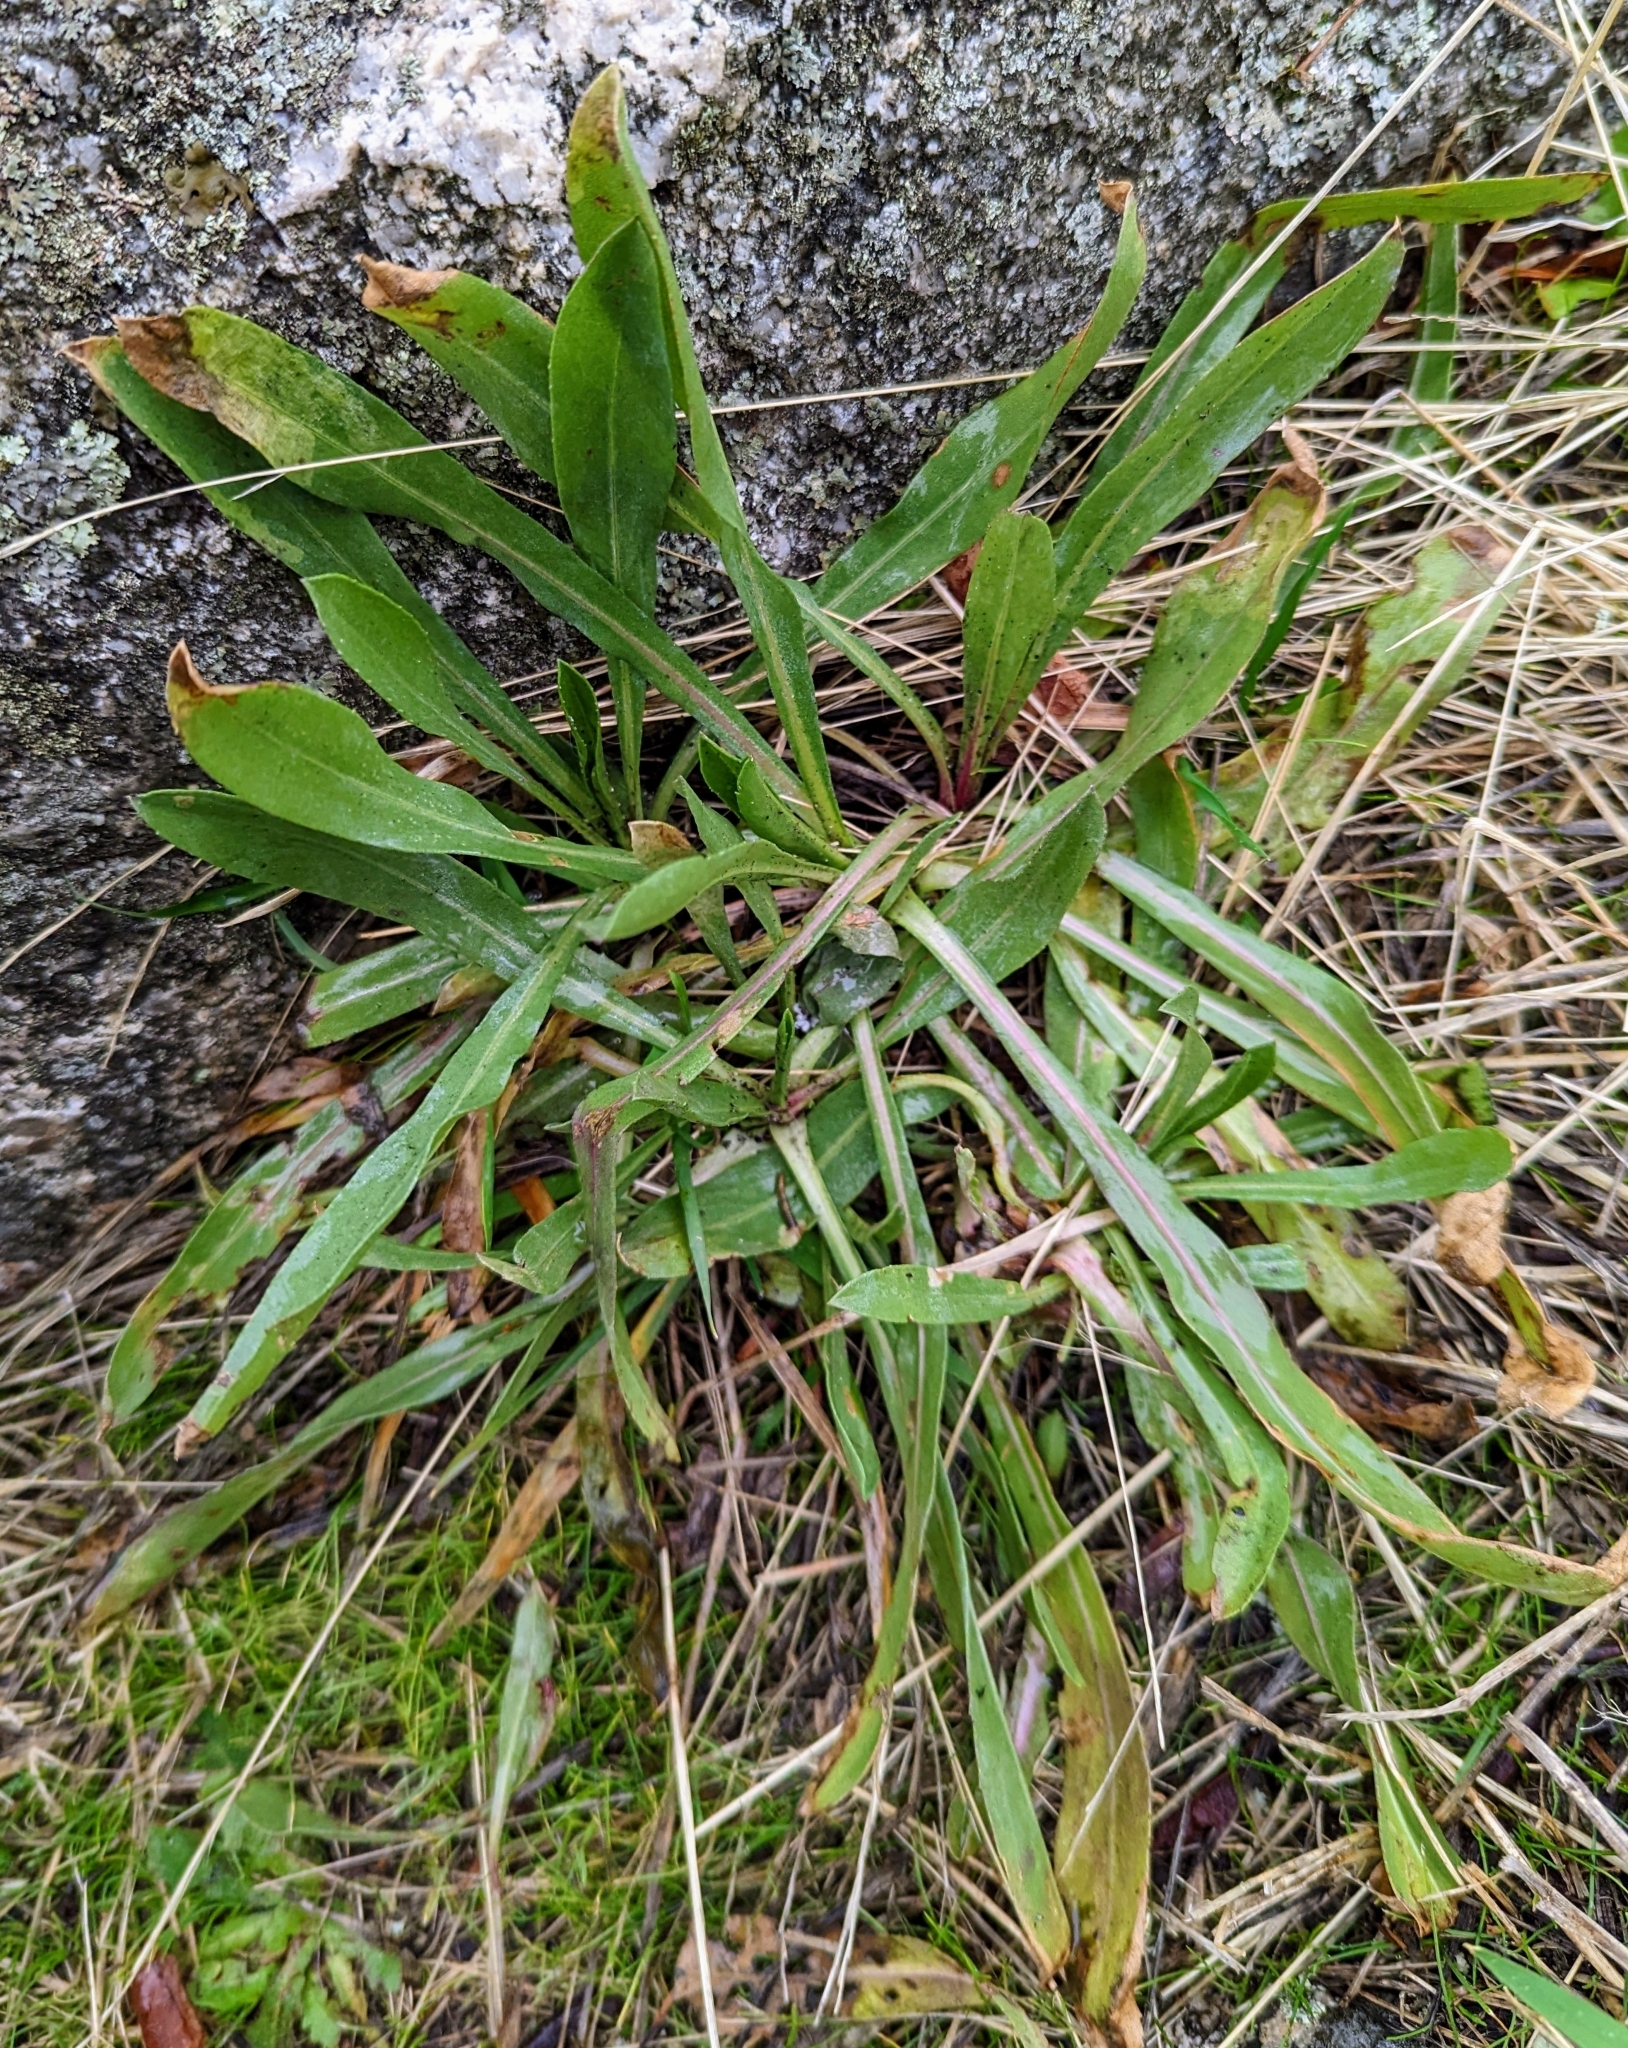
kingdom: Plantae
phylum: Tracheophyta
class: Magnoliopsida
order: Asterales
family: Asteraceae
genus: Grindelia
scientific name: Grindelia hirsutula
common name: Hairy gumweed
